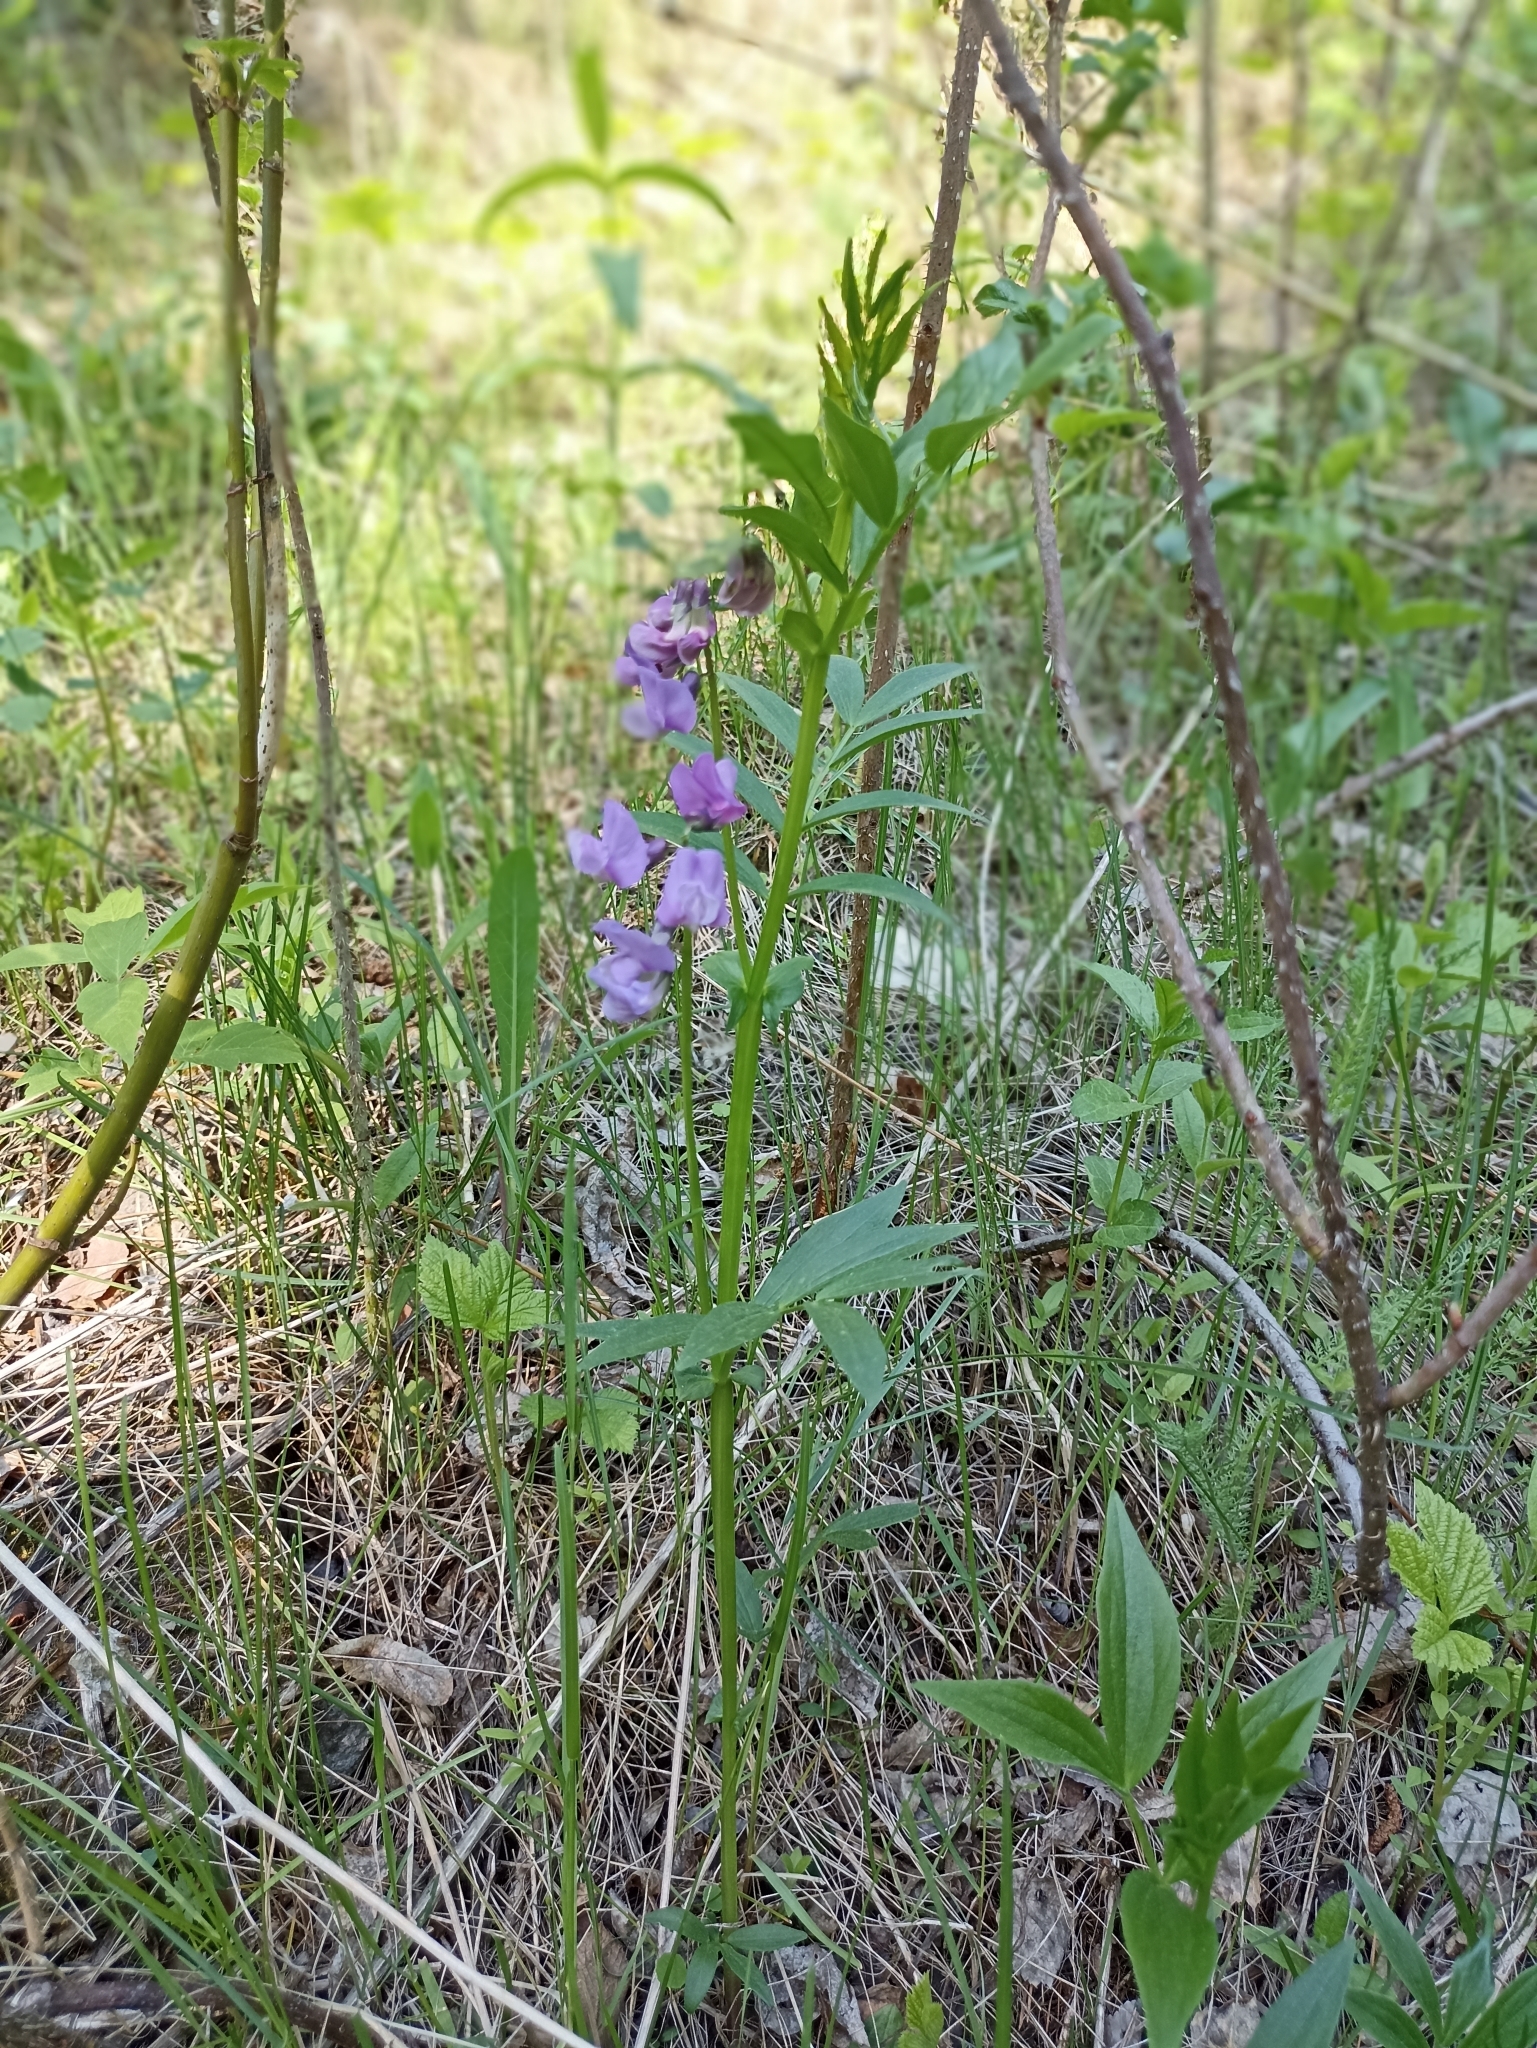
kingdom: Plantae
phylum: Tracheophyta
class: Magnoliopsida
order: Fabales
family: Fabaceae
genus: Lathyrus
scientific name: Lathyrus frolovii
